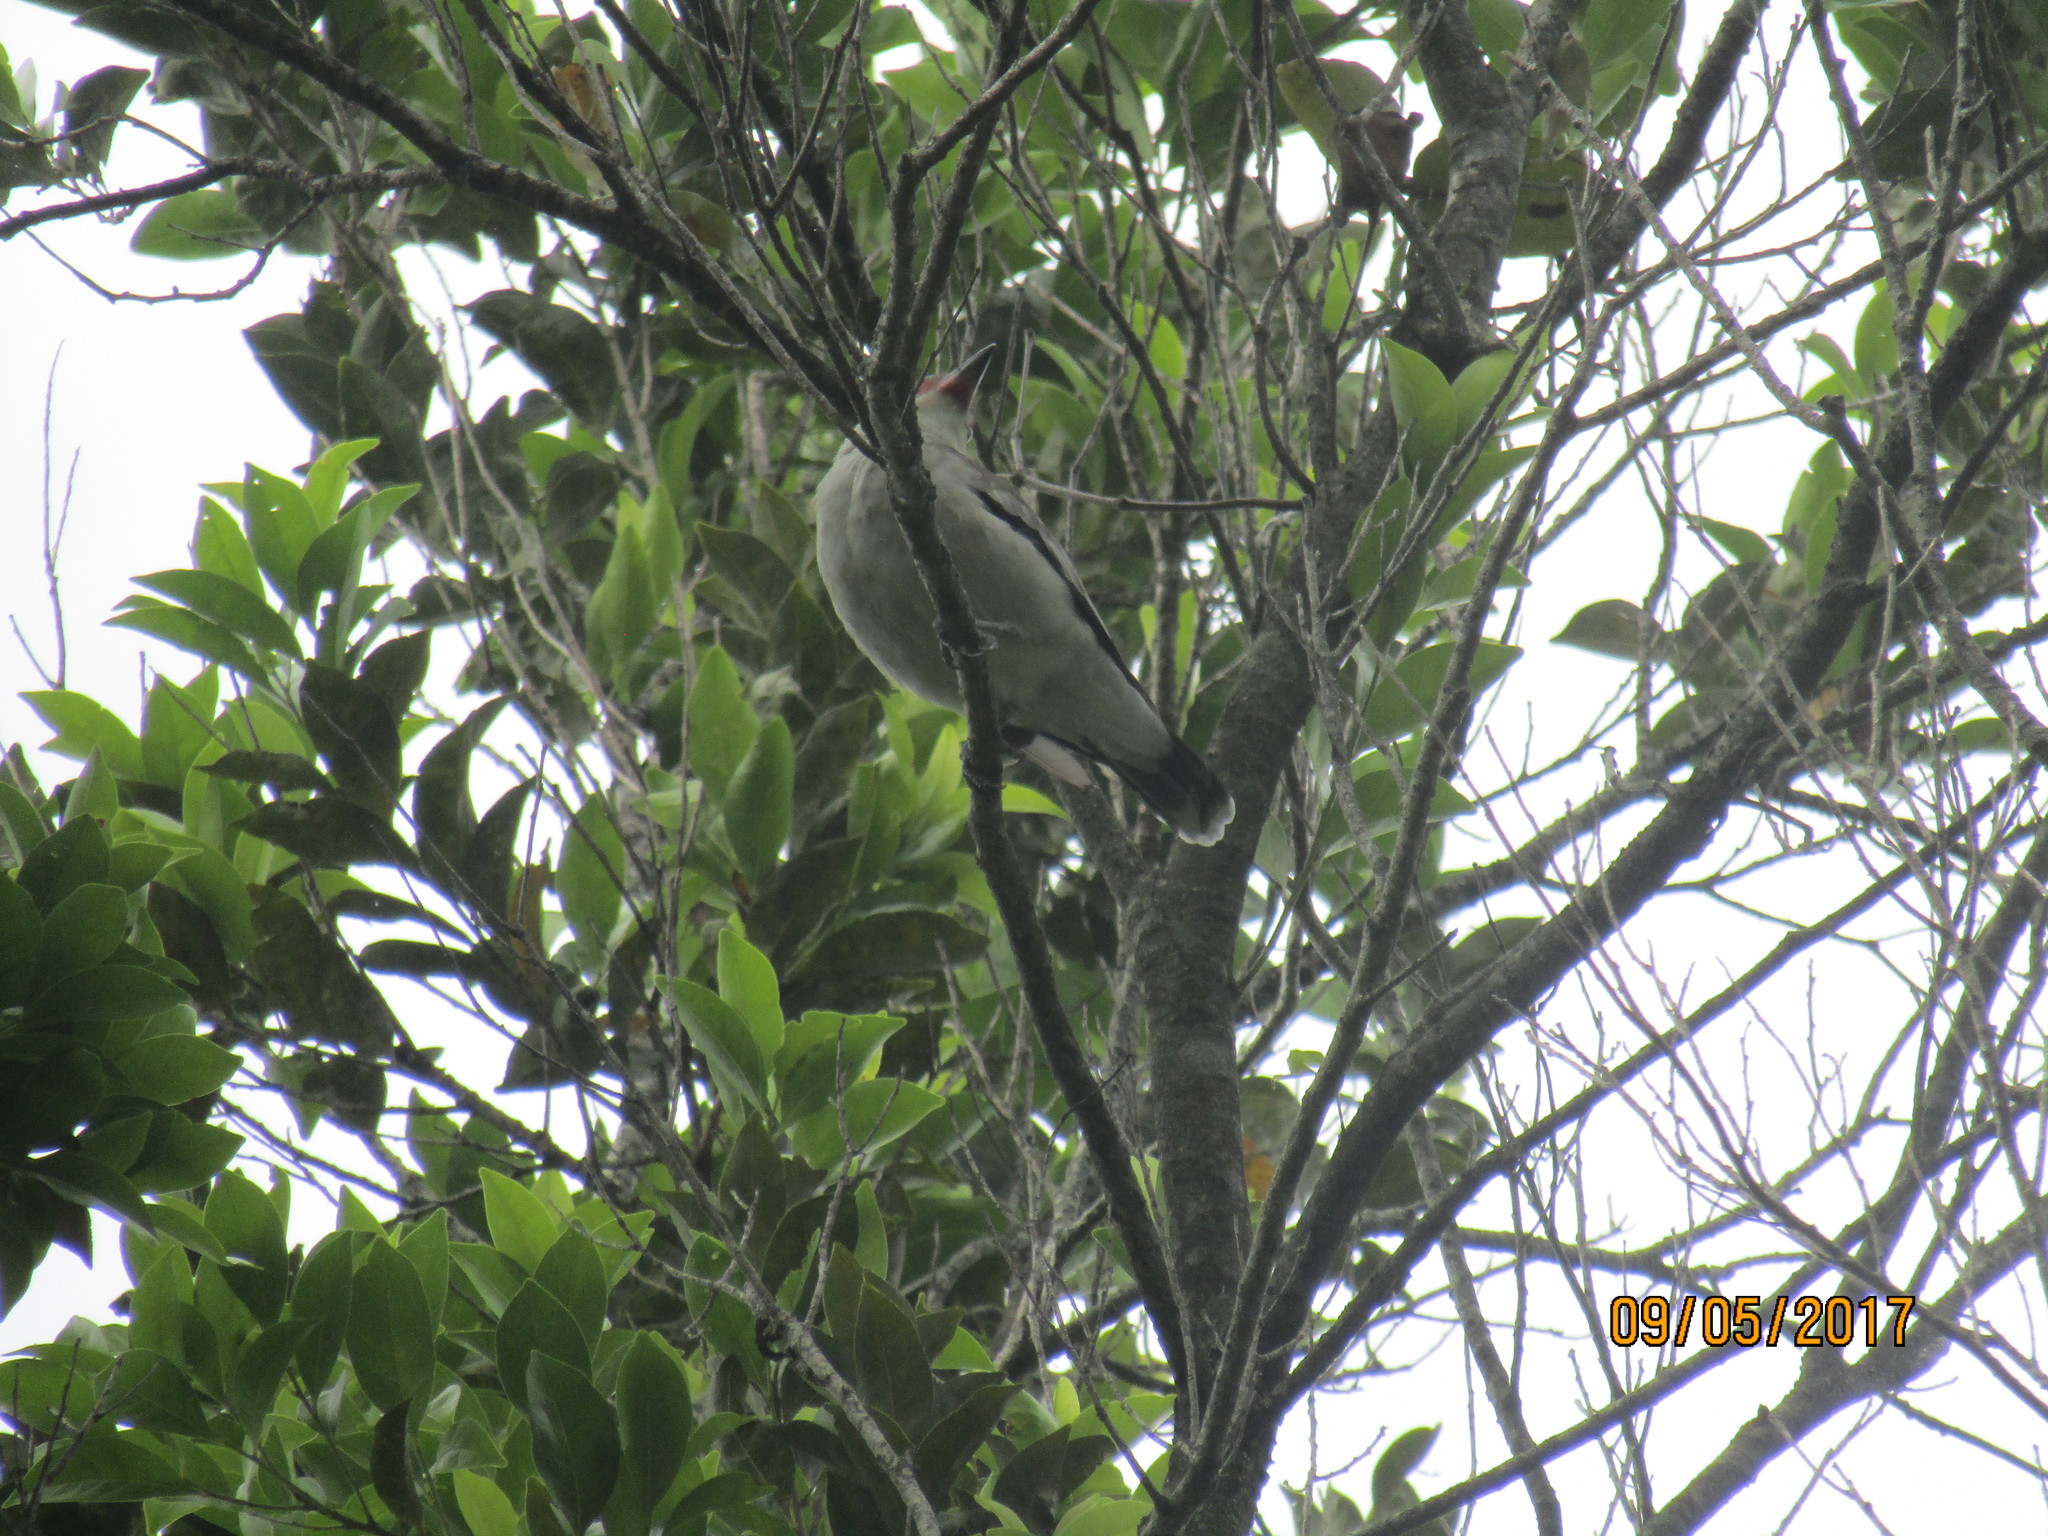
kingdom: Animalia
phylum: Chordata
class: Aves
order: Passeriformes
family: Cotingidae
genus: Tityra
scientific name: Tityra semifasciata
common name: Masked tityra
